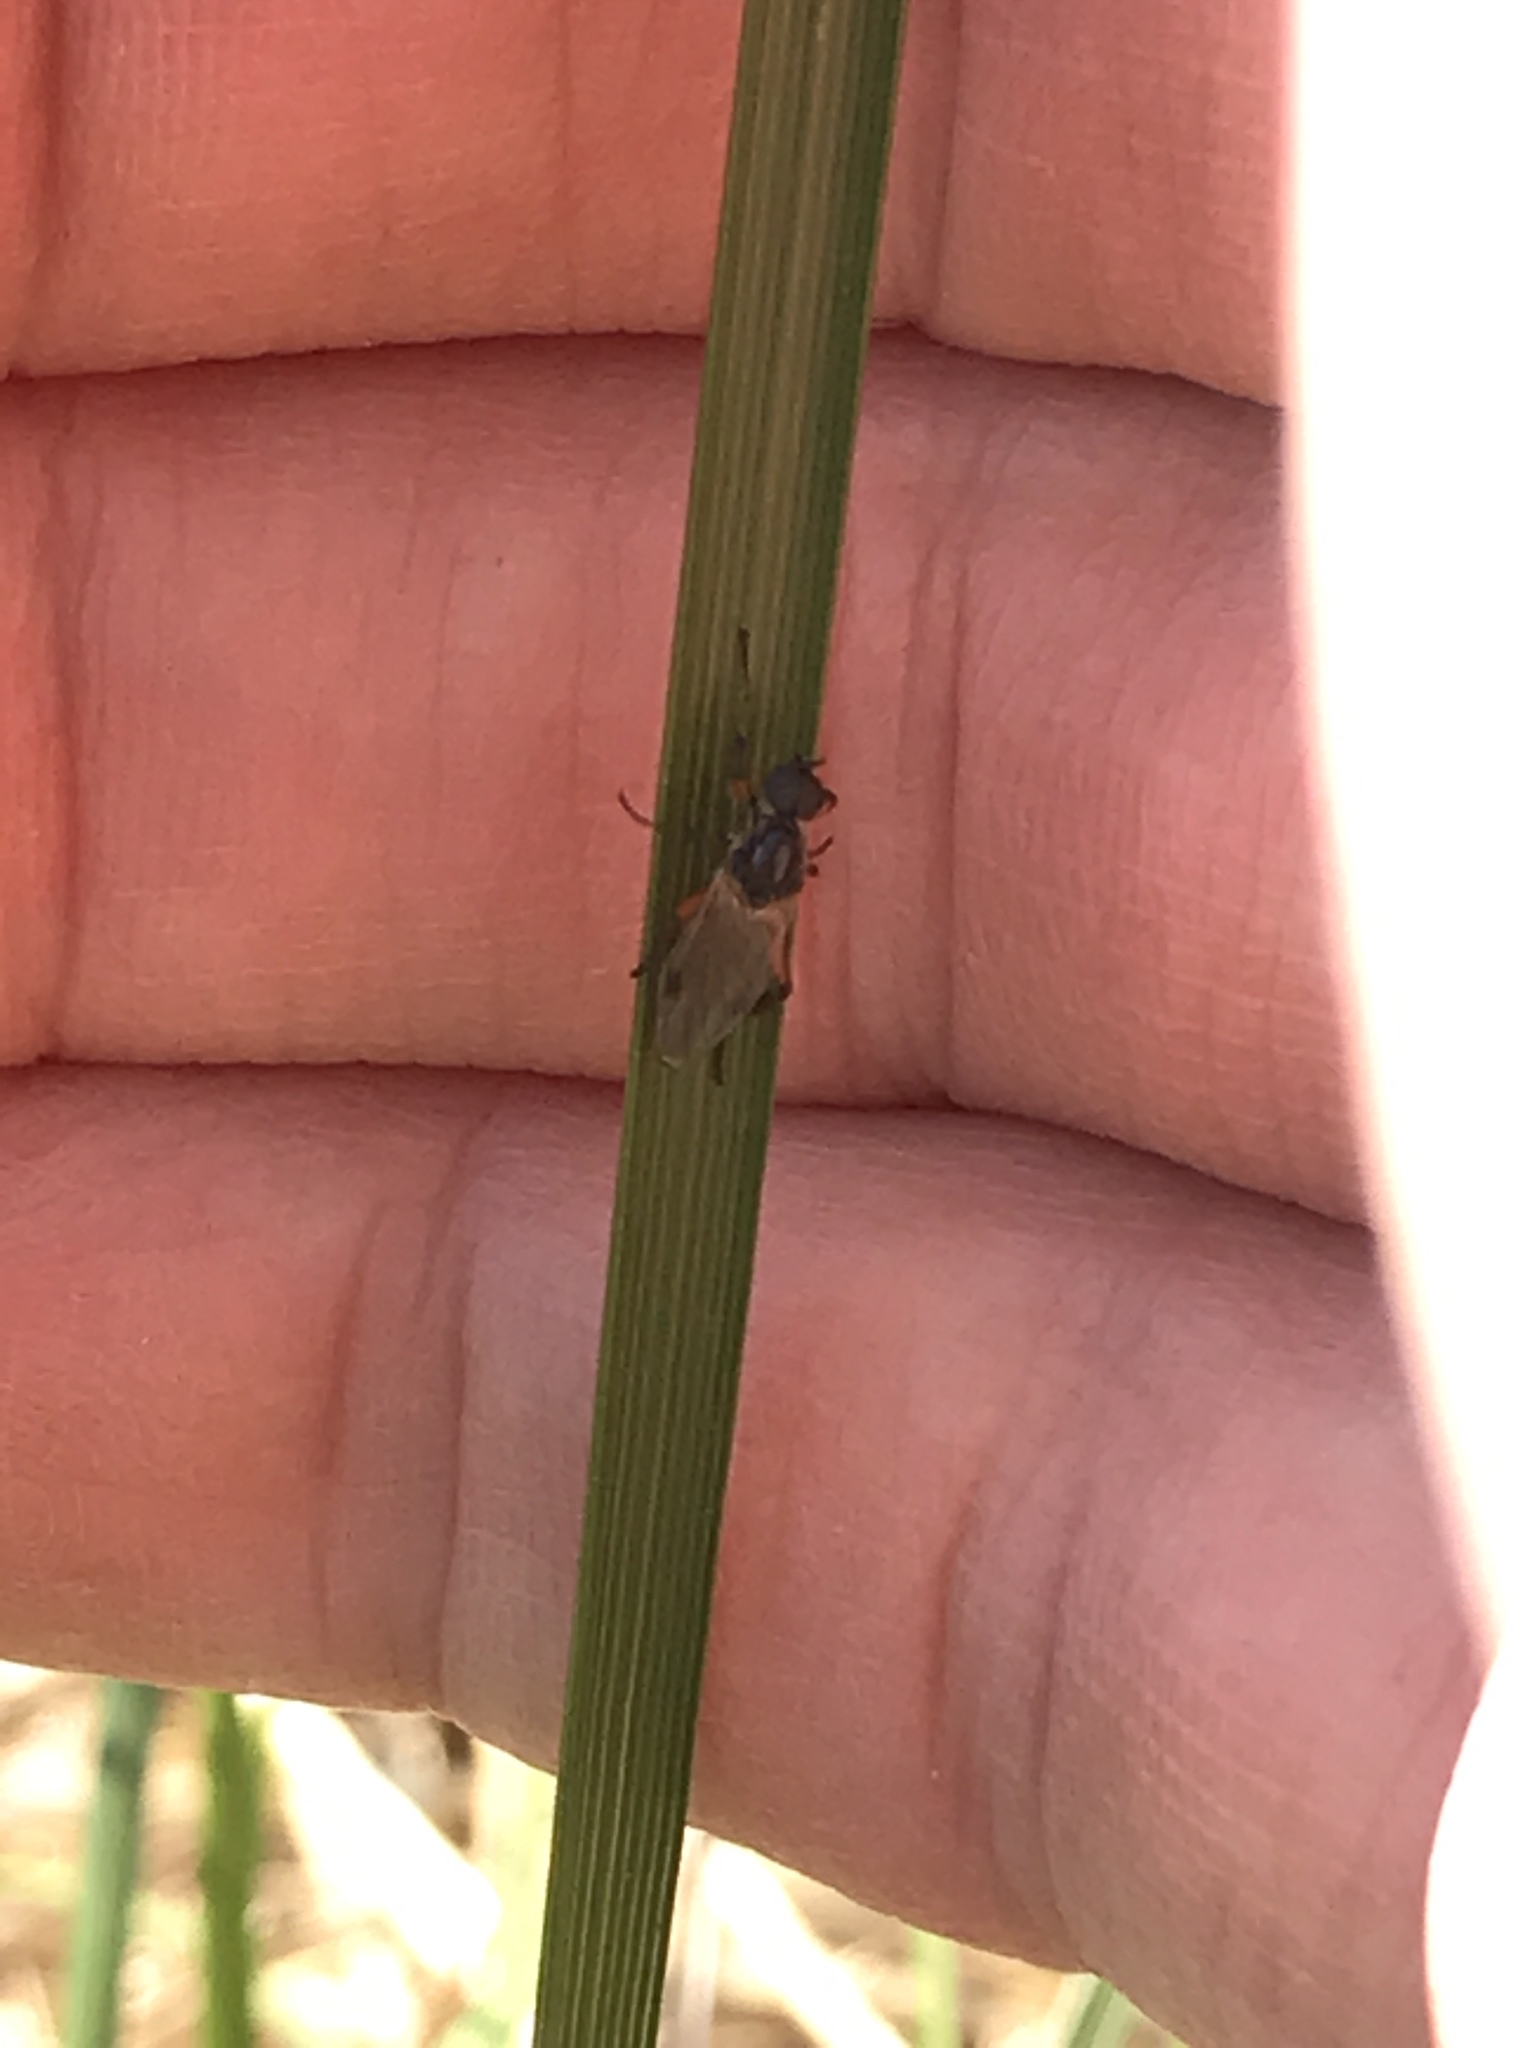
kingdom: Animalia
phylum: Arthropoda
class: Insecta
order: Diptera
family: Bibionidae
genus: Bibio
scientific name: Bibio articulatus
